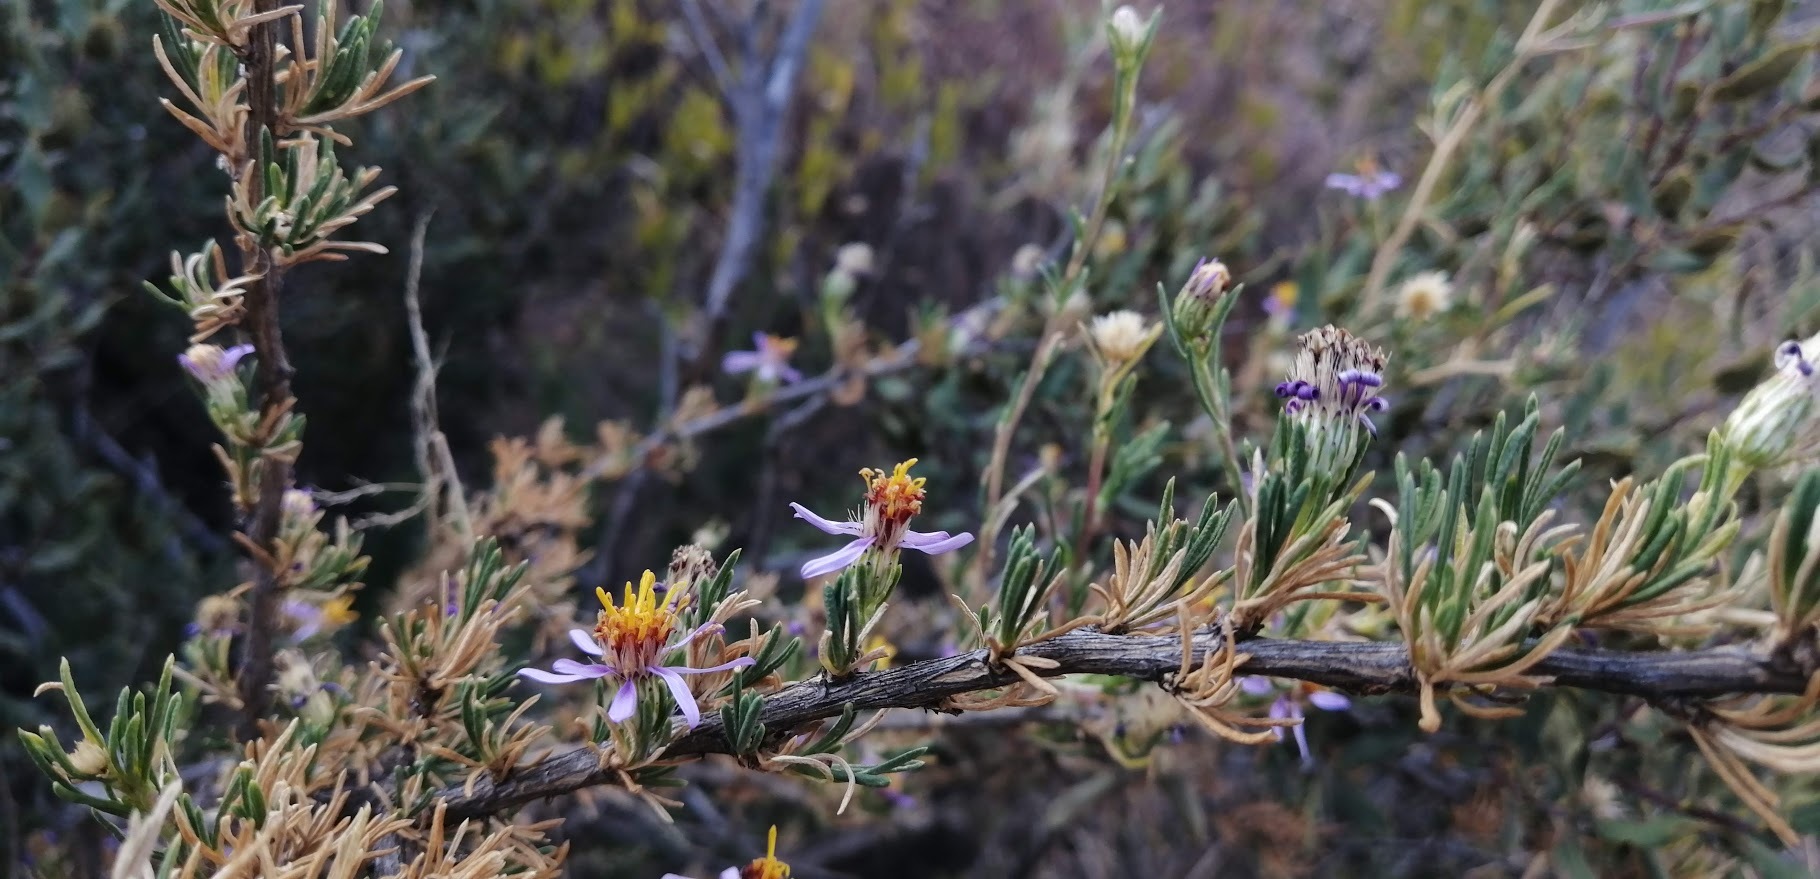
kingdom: Plantae
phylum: Tracheophyta
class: Magnoliopsida
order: Asterales
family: Asteraceae
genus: Felicia
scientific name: Felicia filifolia
